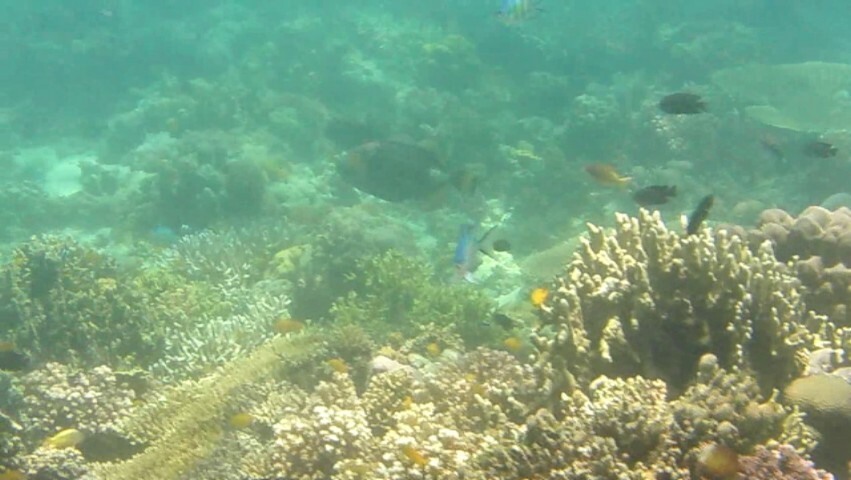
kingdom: Animalia
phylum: Chordata
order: Tetraodontiformes
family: Balistidae
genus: Balistoides
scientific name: Balistoides viridescens
